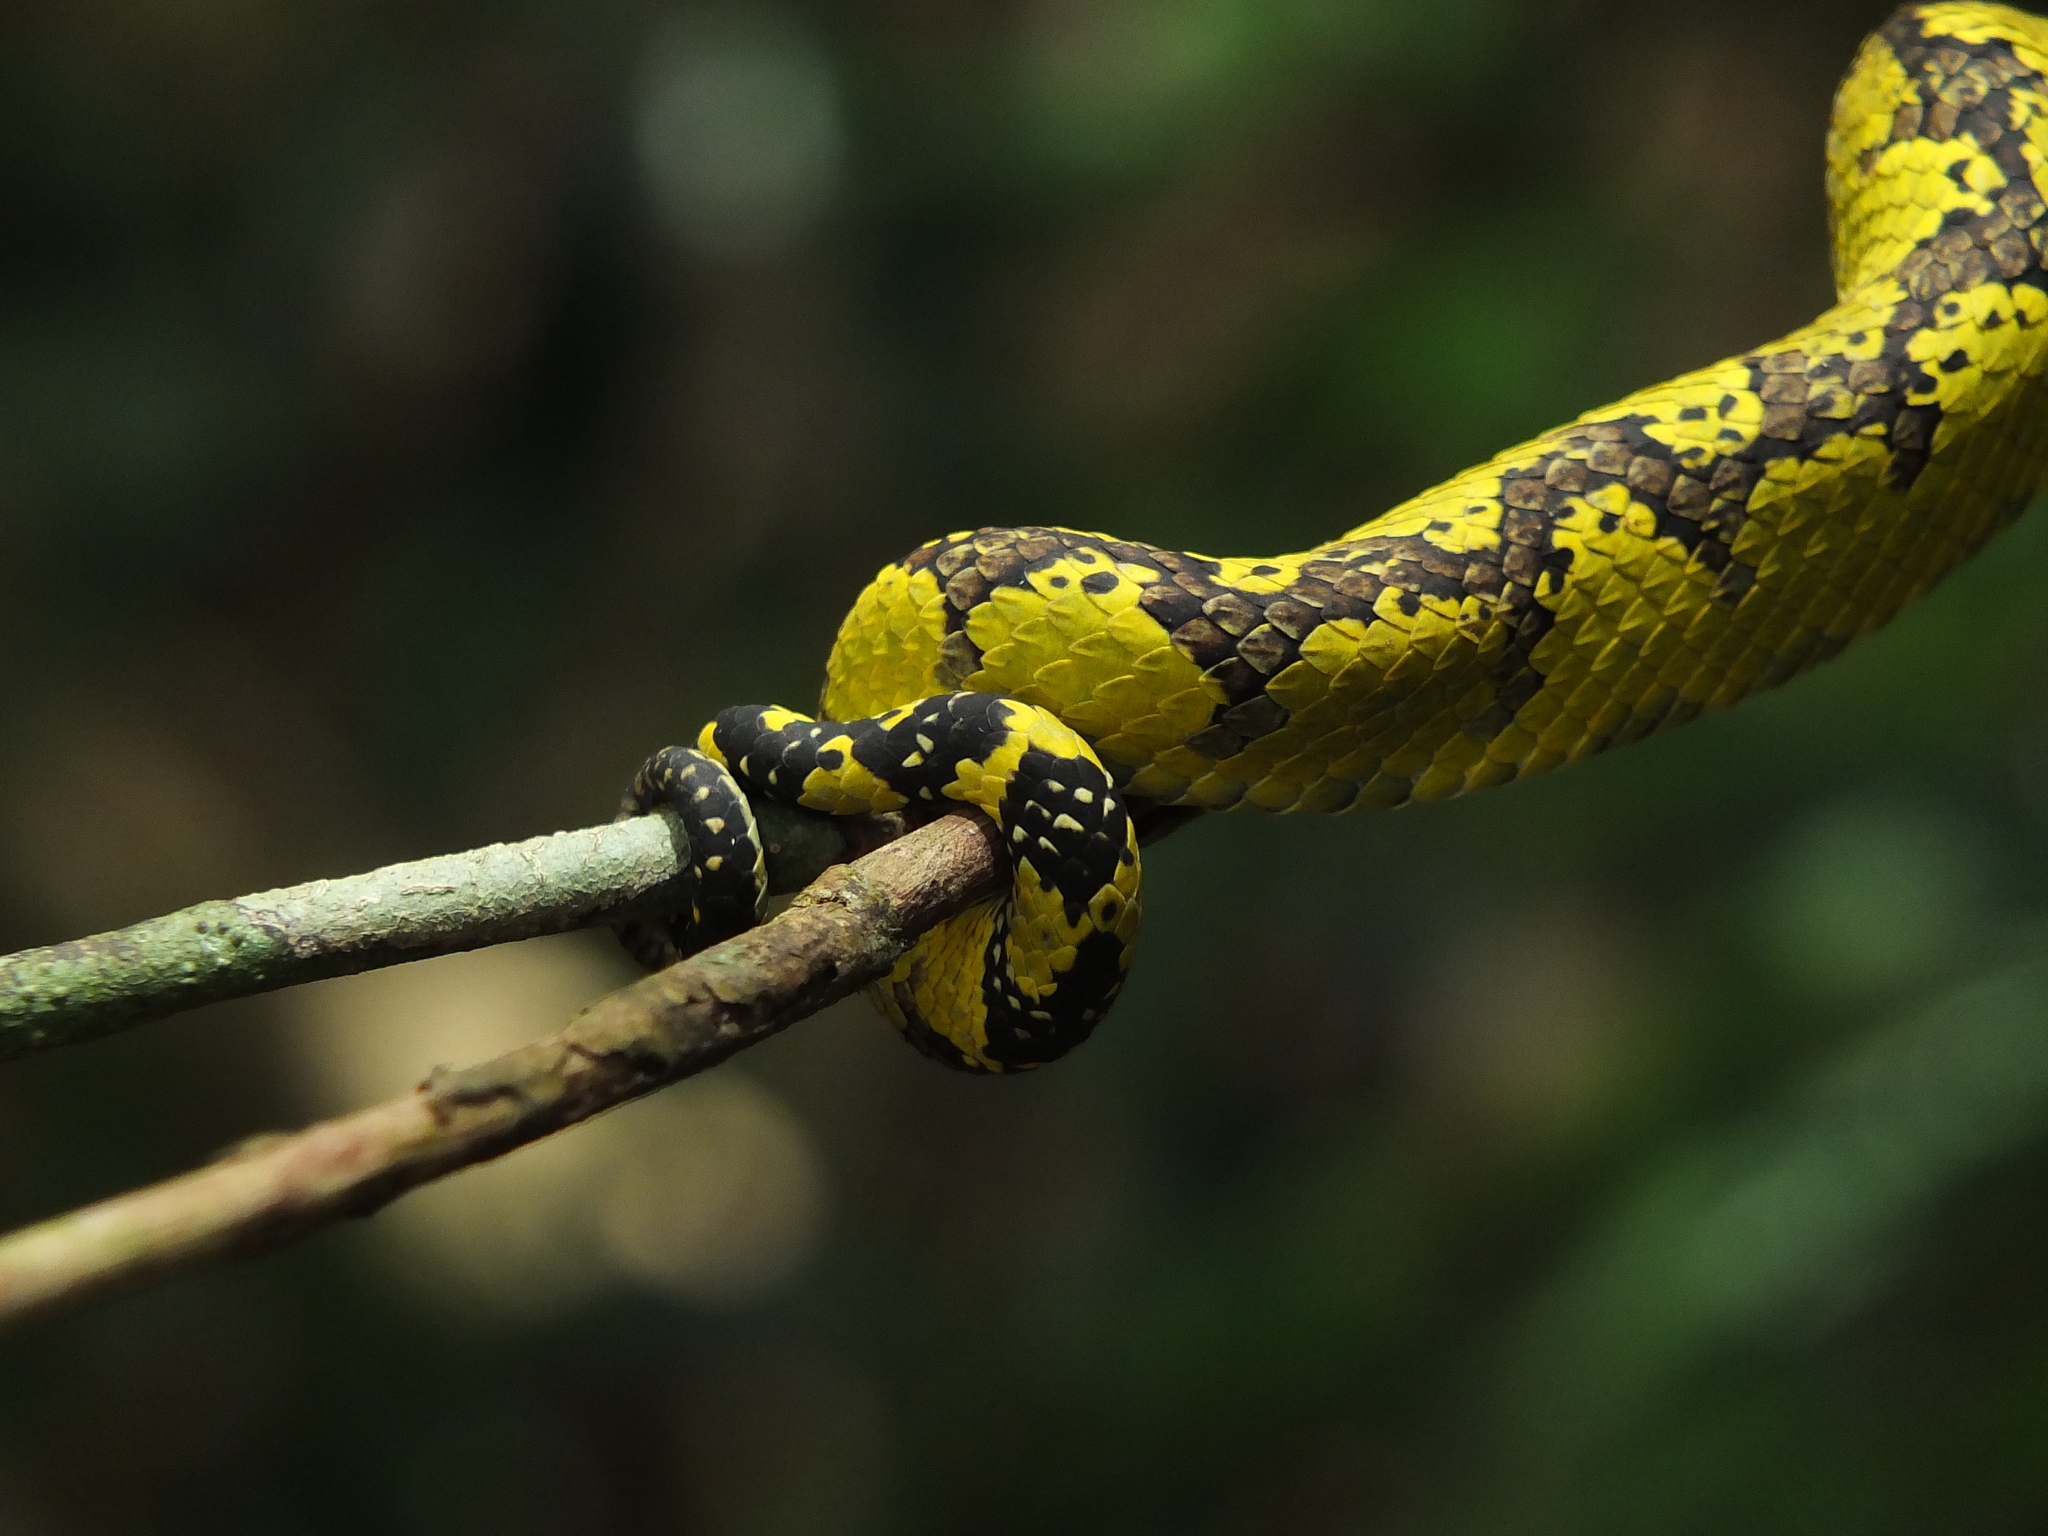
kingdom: Animalia
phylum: Chordata
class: Squamata
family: Viperidae
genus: Craspedocephalus
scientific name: Craspedocephalus malabaricus
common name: Malabarian pit viper
